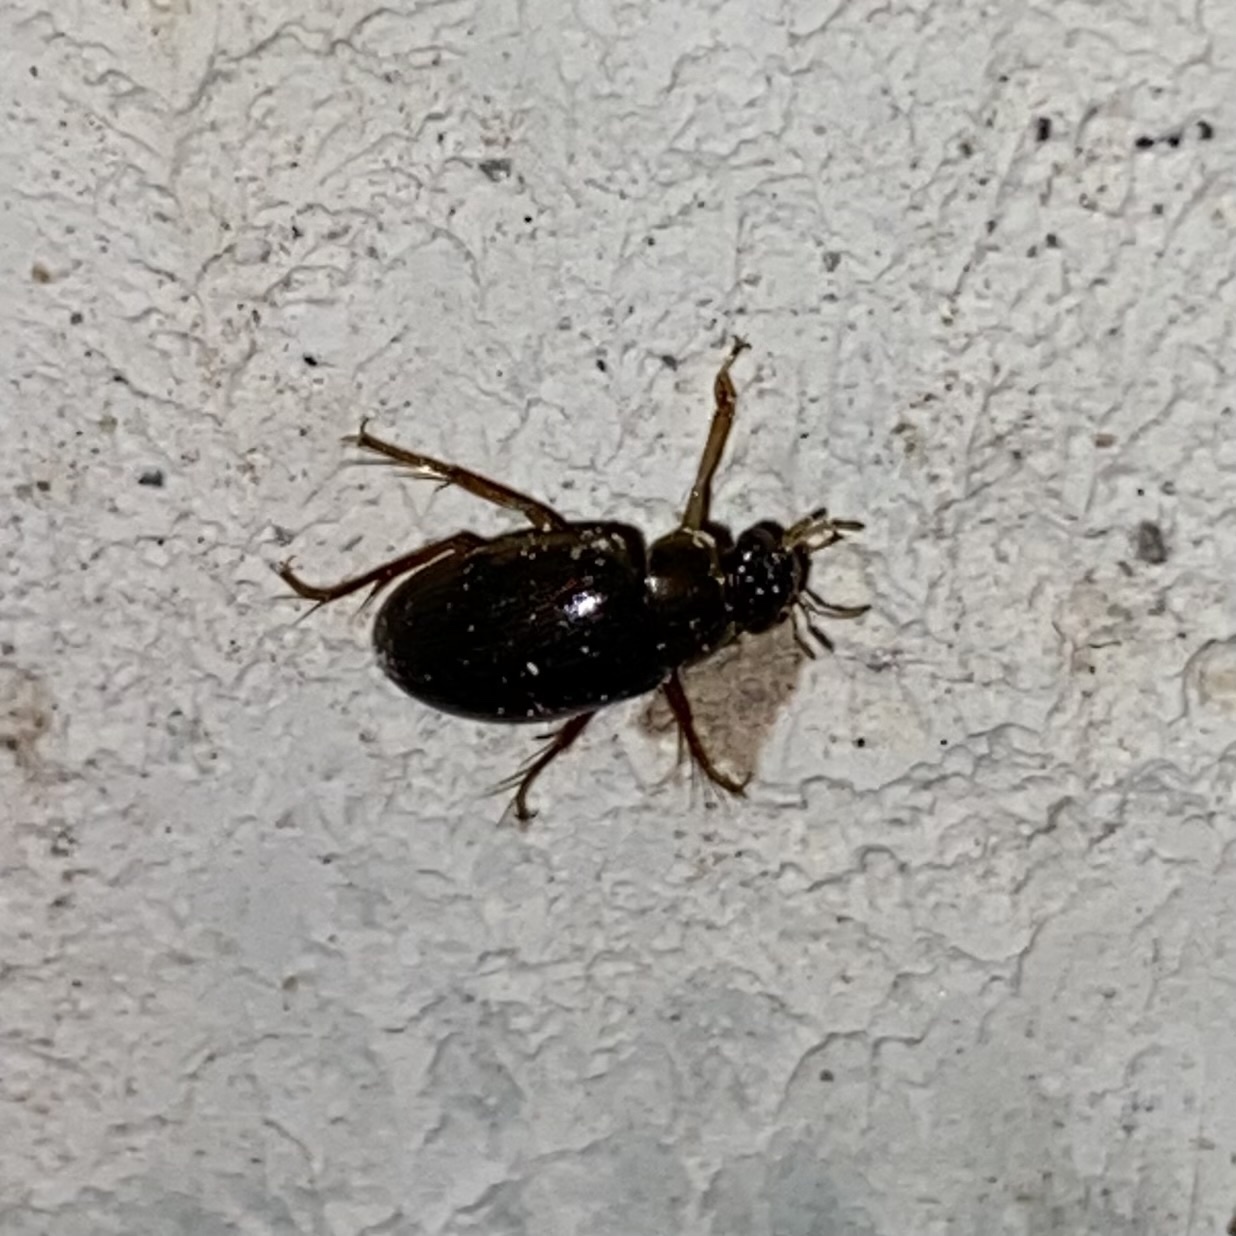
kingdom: Animalia
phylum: Arthropoda
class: Insecta
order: Coleoptera
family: Hydrophilidae
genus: Berosus
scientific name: Berosus
